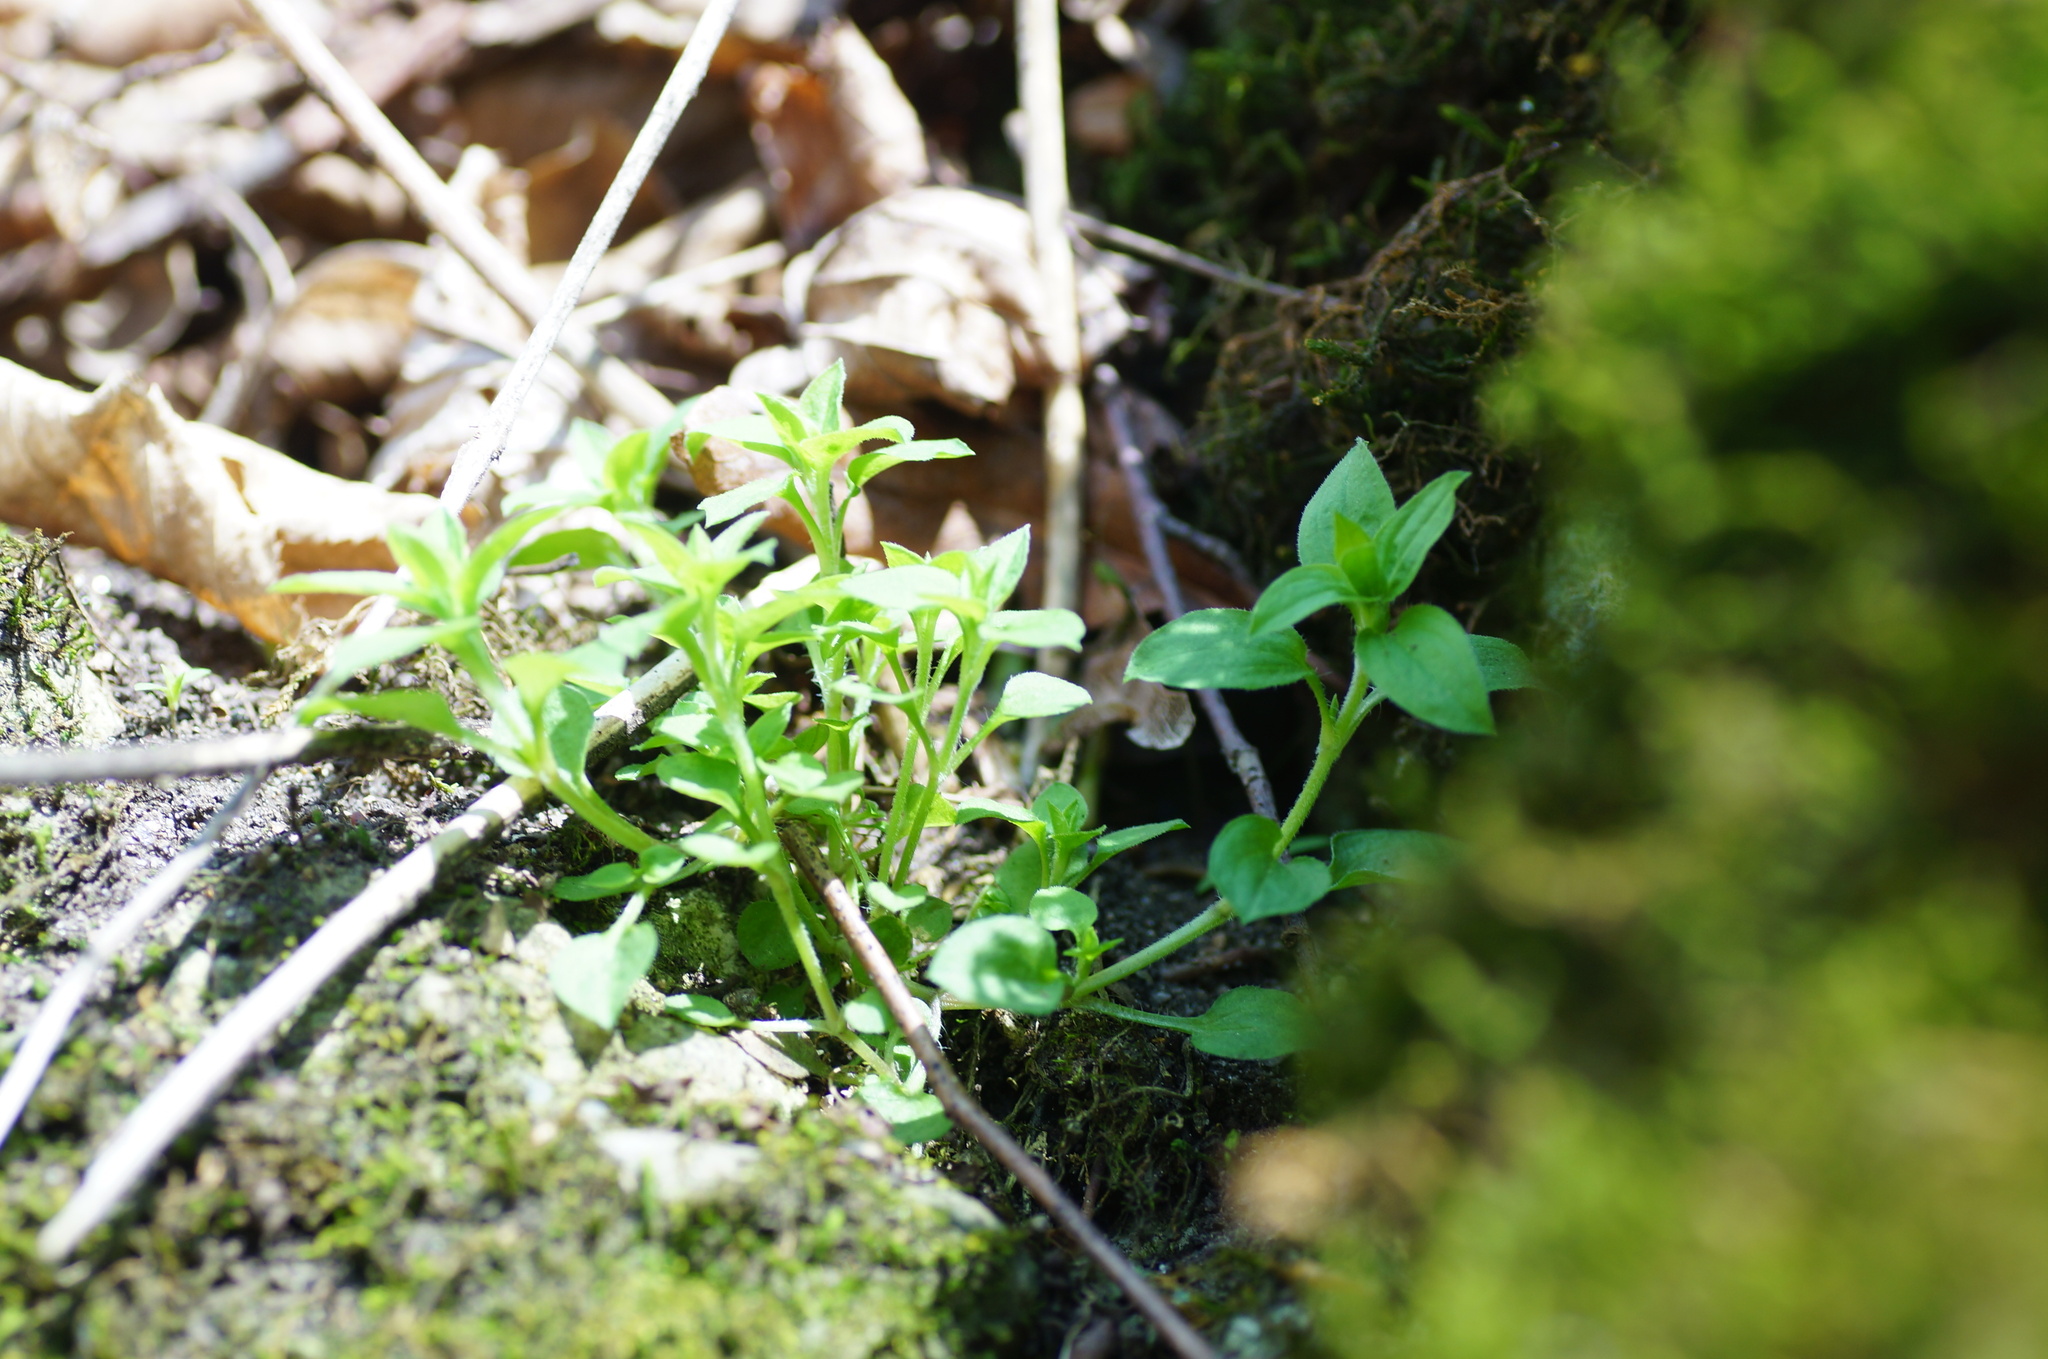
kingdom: Plantae
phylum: Tracheophyta
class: Magnoliopsida
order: Caryophyllales
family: Caryophyllaceae
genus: Moehringia
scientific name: Moehringia trinervia
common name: Three-nerved sandwort
